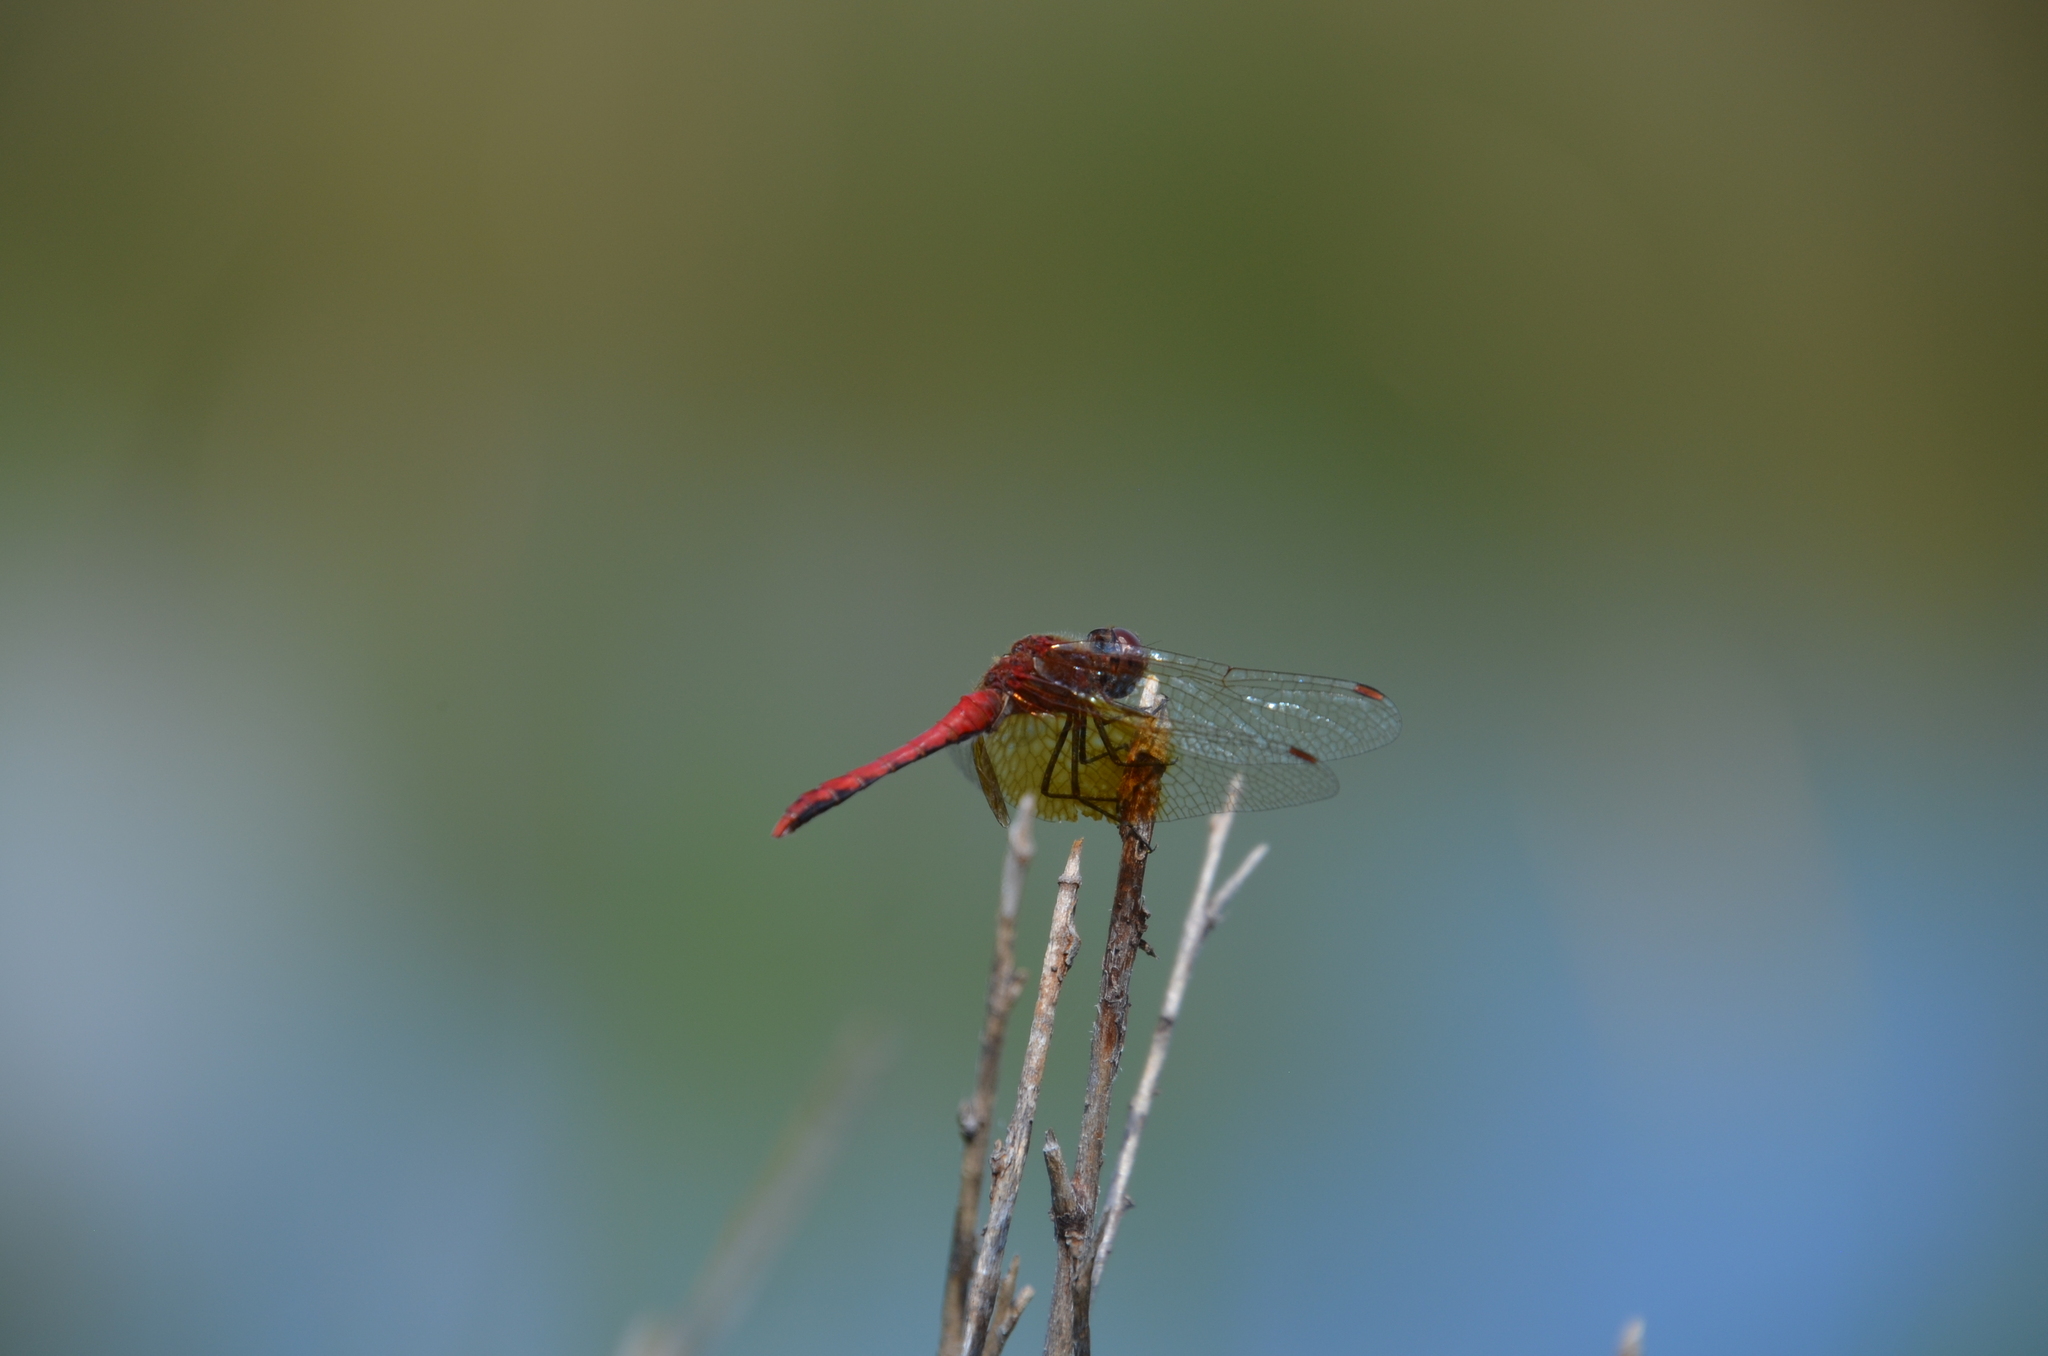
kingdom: Animalia
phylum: Arthropoda
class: Insecta
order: Odonata
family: Libellulidae
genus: Sympetrum
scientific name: Sympetrum semicinctum
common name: Band-winged meadowhawk
